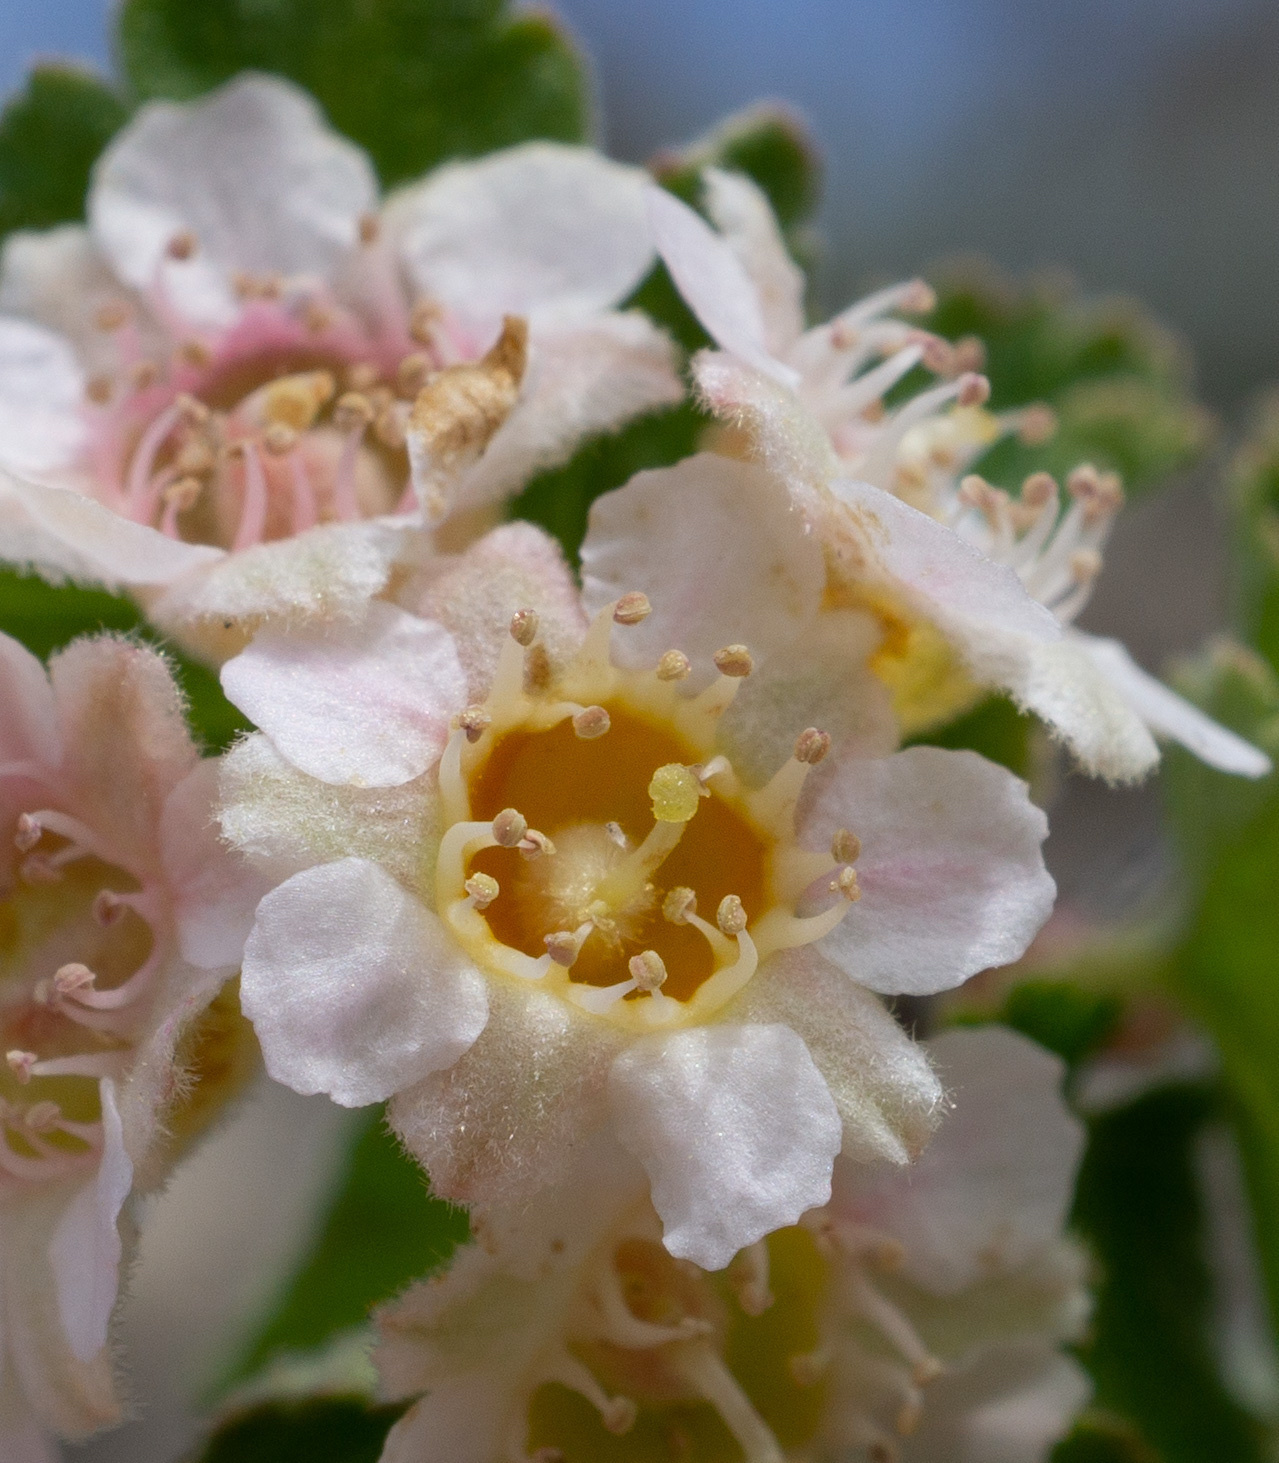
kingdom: Plantae
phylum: Tracheophyta
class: Magnoliopsida
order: Rosales
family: Rosaceae
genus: Physocarpus
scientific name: Physocarpus alternans
